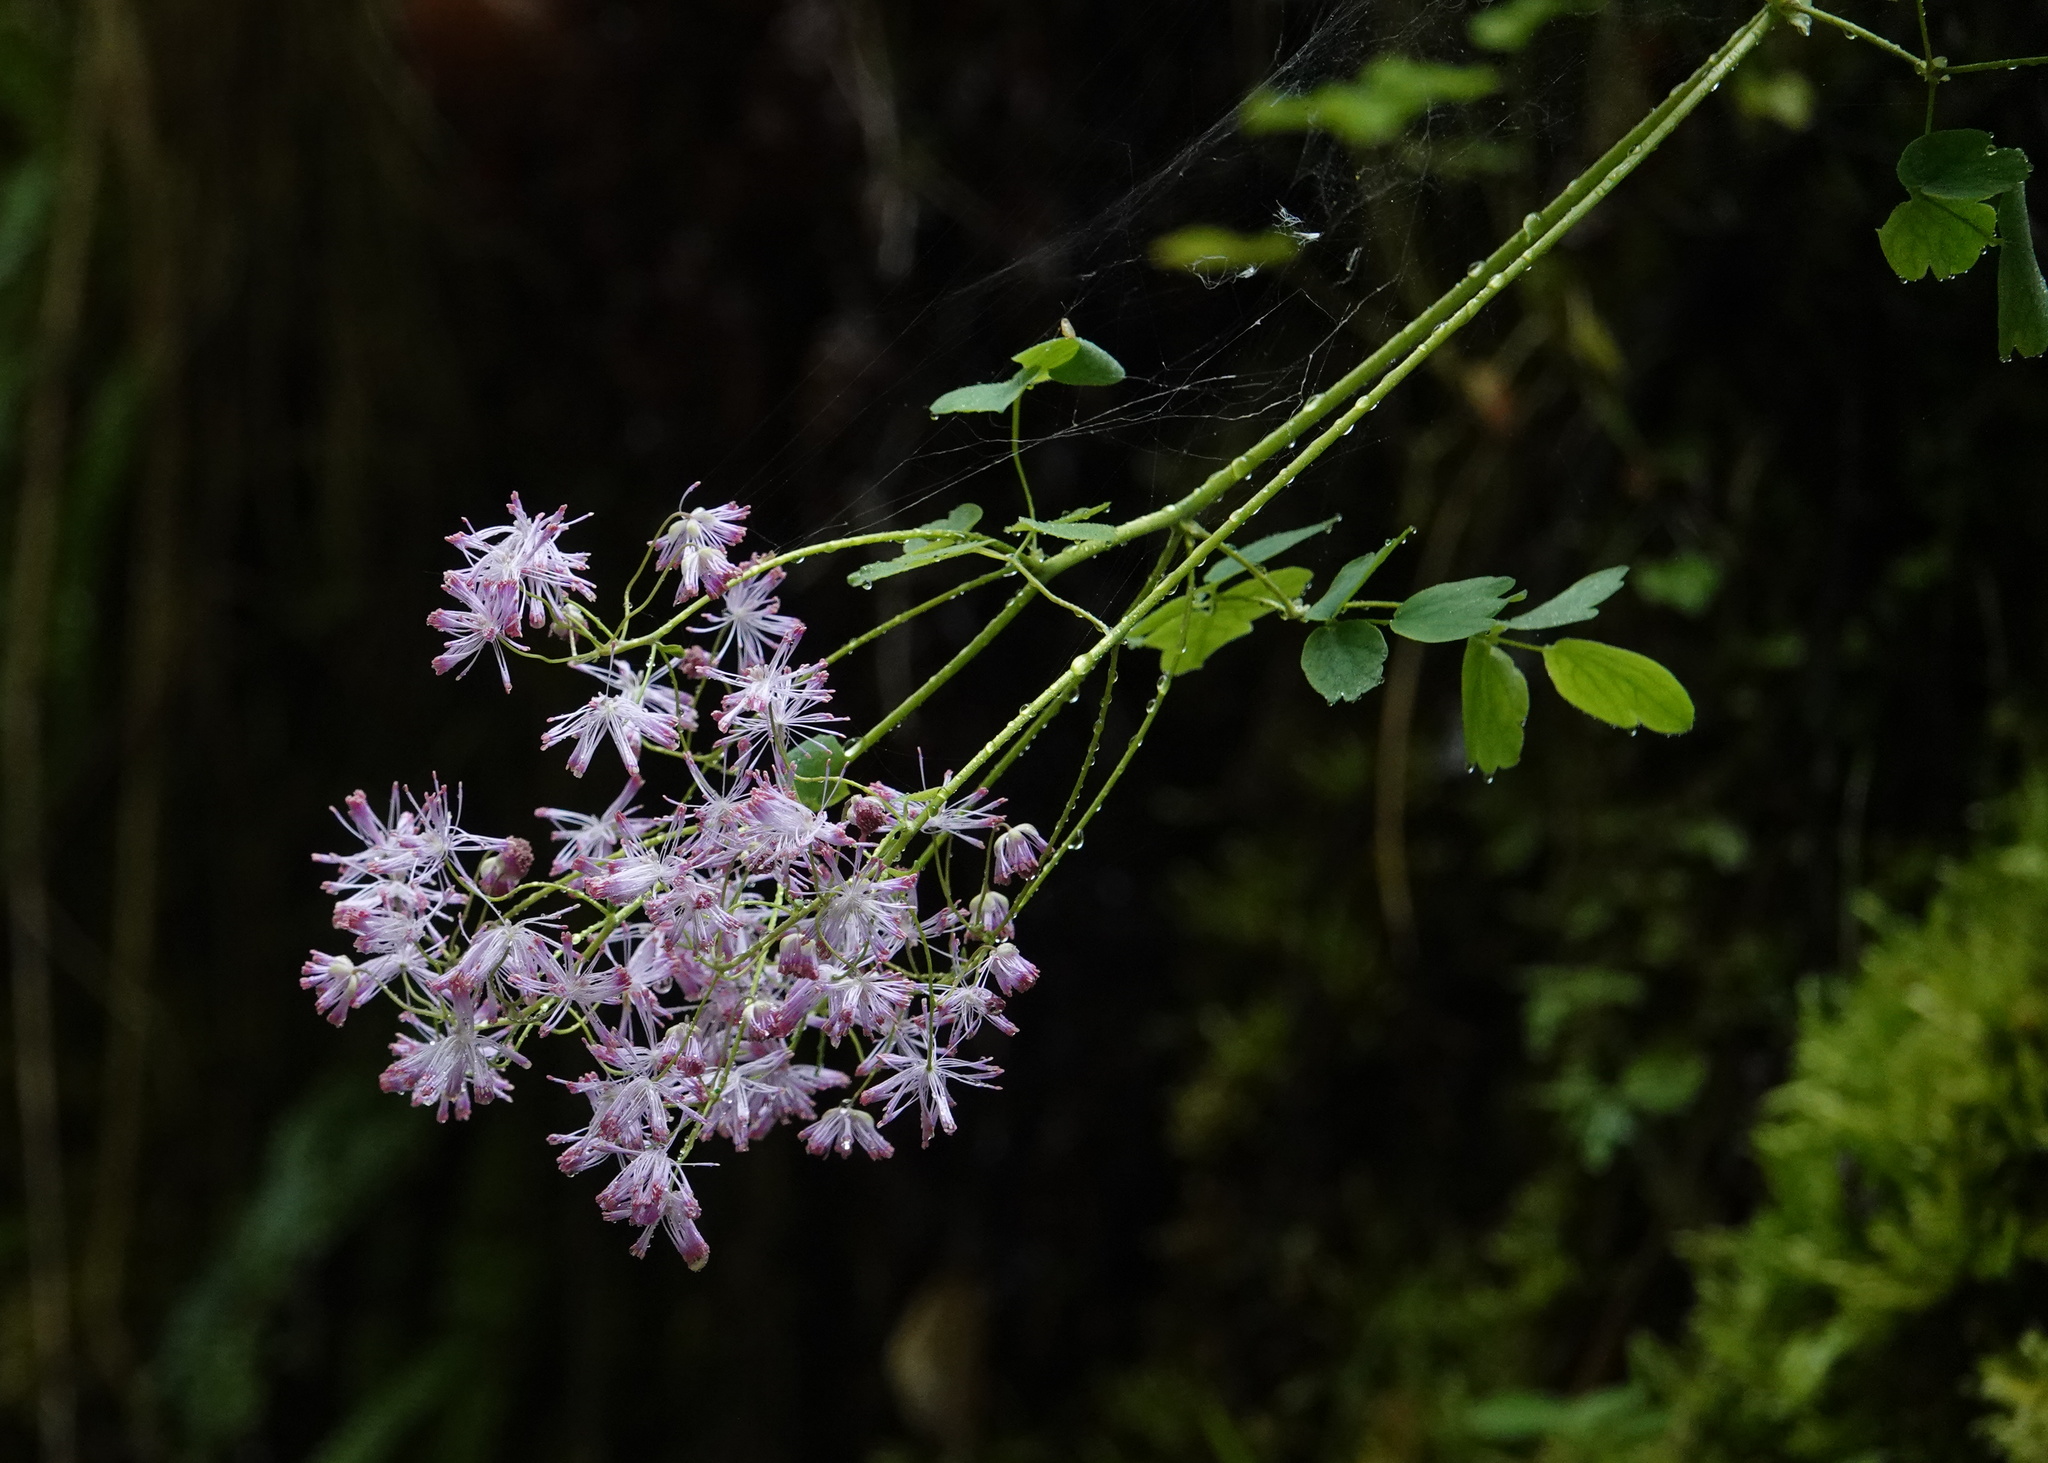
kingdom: Plantae
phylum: Tracheophyta
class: Magnoliopsida
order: Ranunculales
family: Ranunculaceae
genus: Thalictrum
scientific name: Thalictrum aquilegiifolium
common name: French meadow-rue
